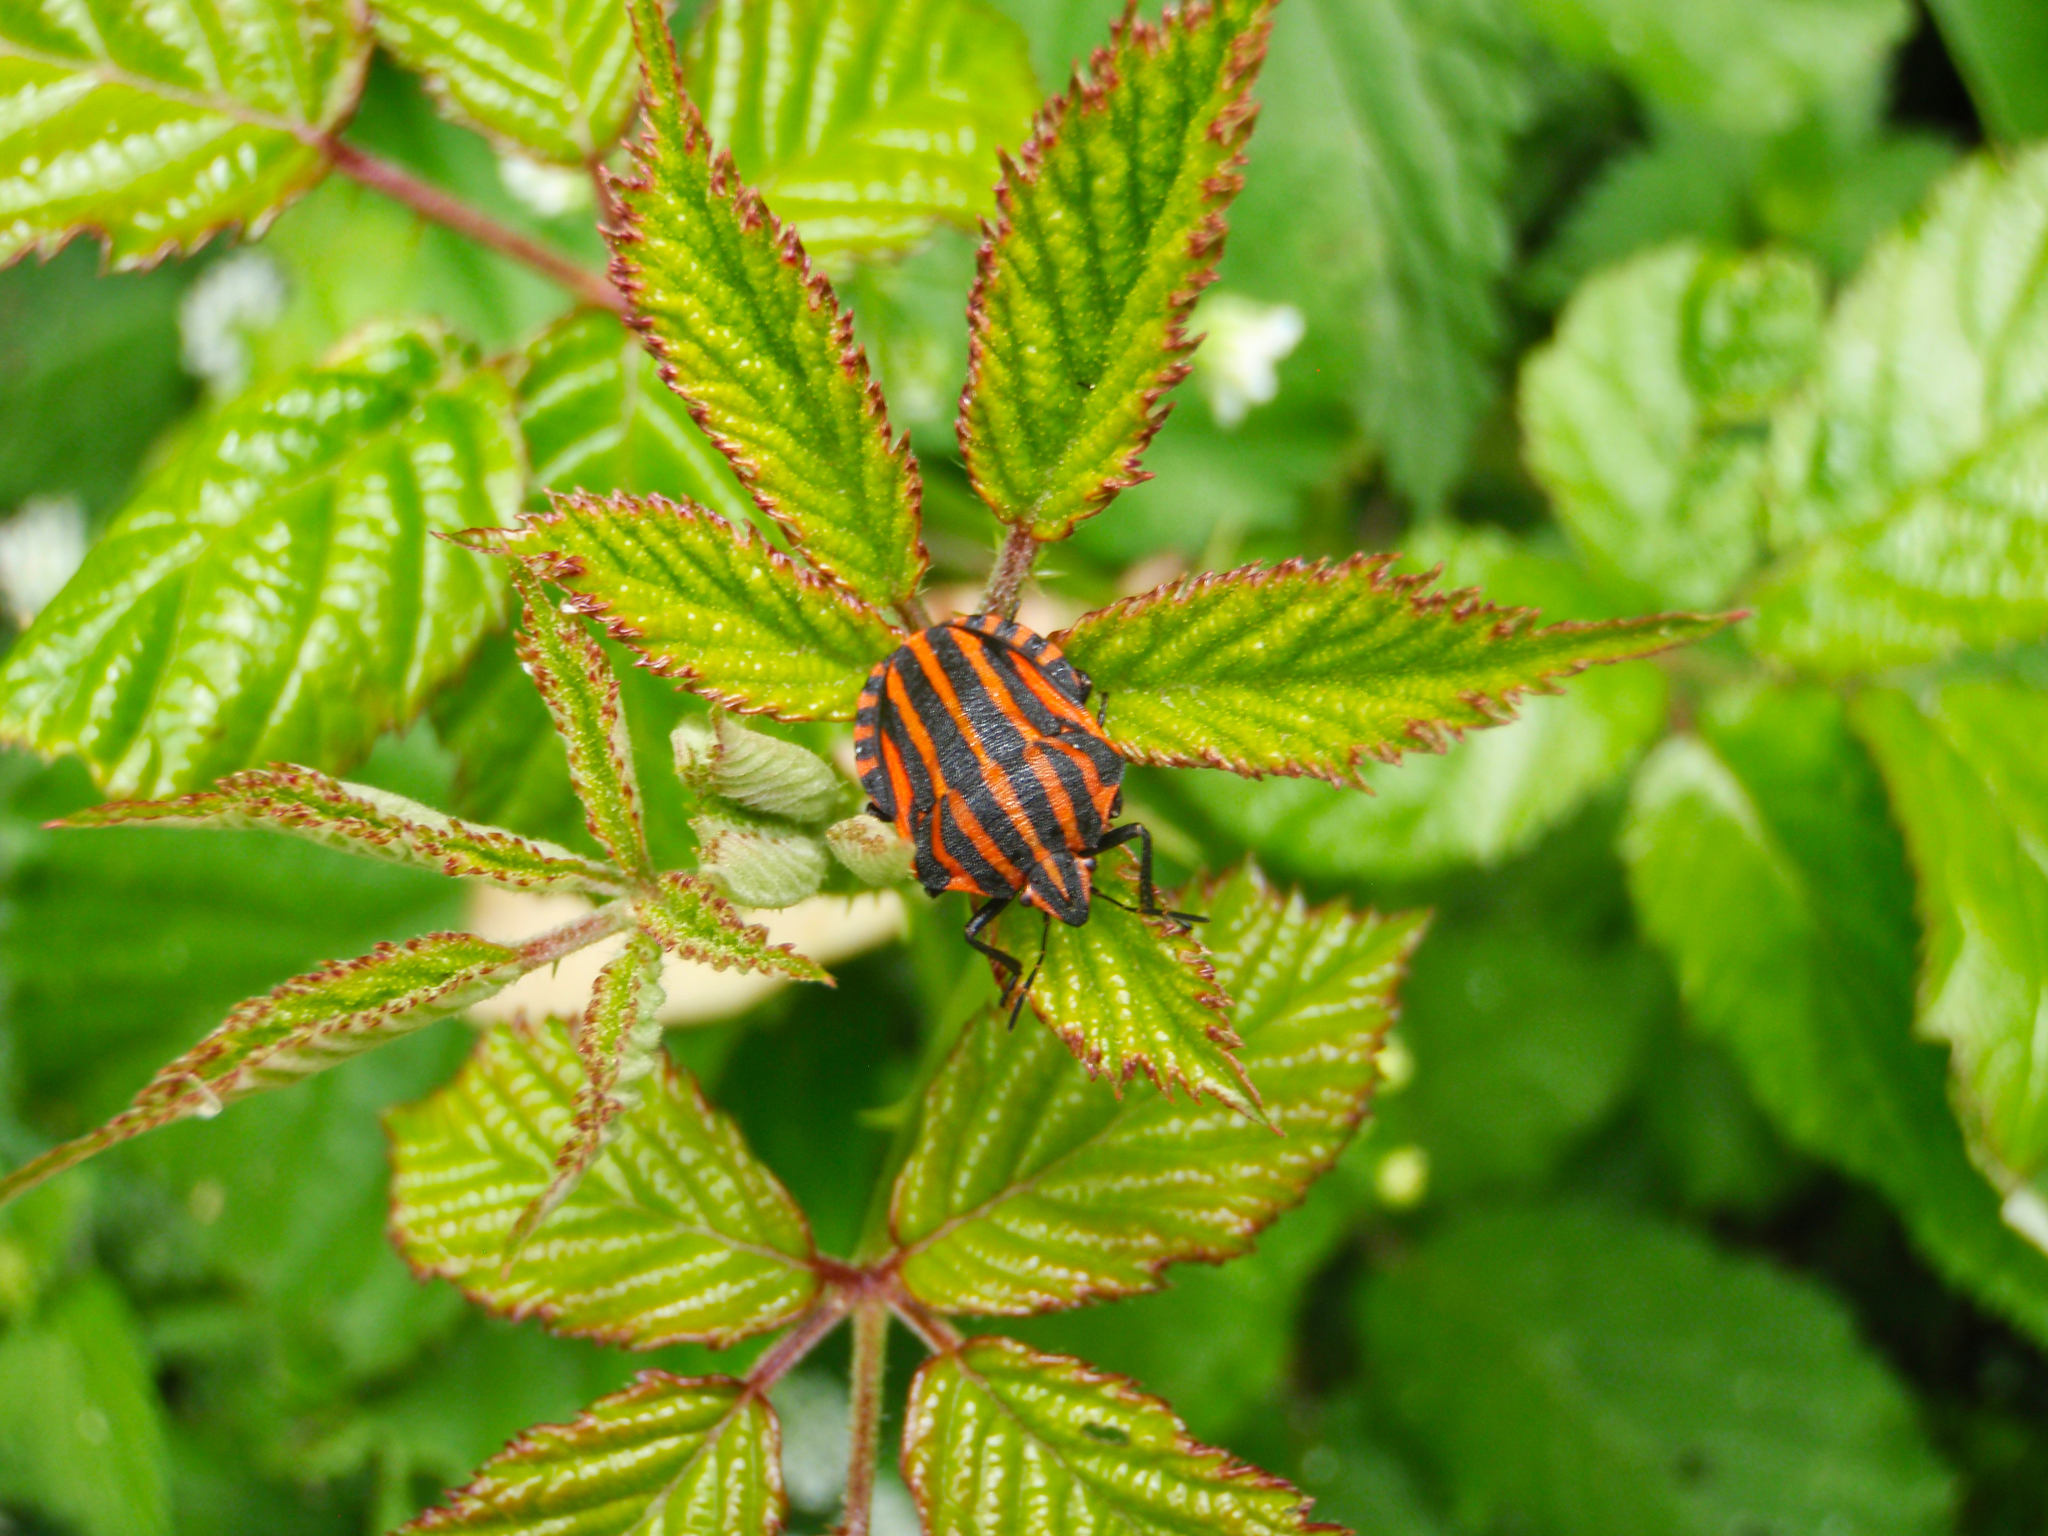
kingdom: Animalia
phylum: Arthropoda
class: Insecta
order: Hemiptera
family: Pentatomidae
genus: Graphosoma
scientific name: Graphosoma italicum
